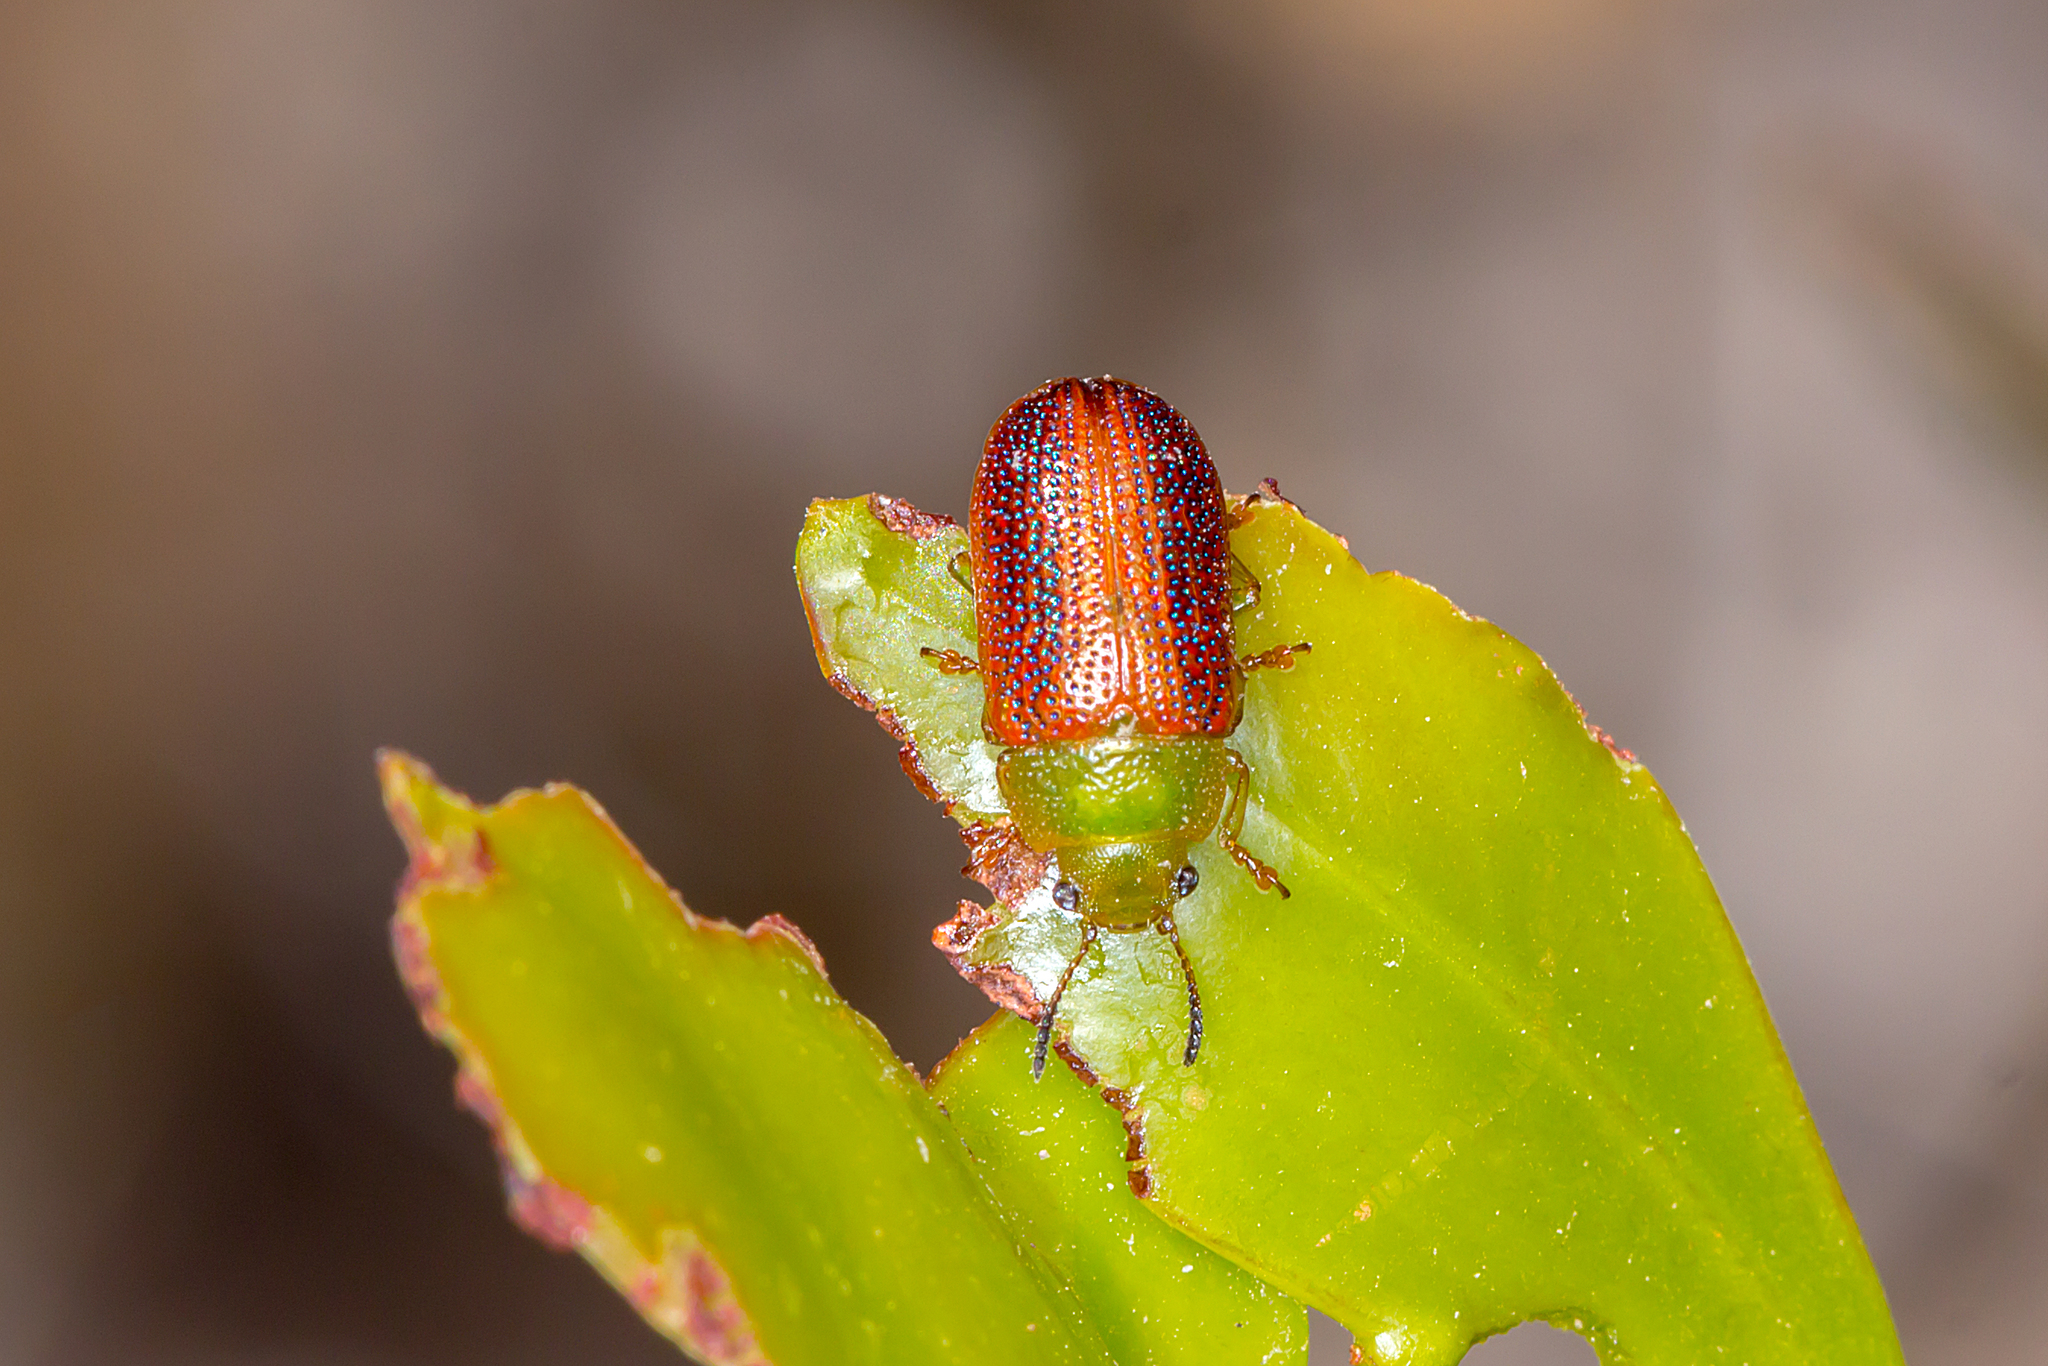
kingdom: Animalia
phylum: Arthropoda
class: Insecta
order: Coleoptera
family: Chrysomelidae
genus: Calomela
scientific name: Calomela
